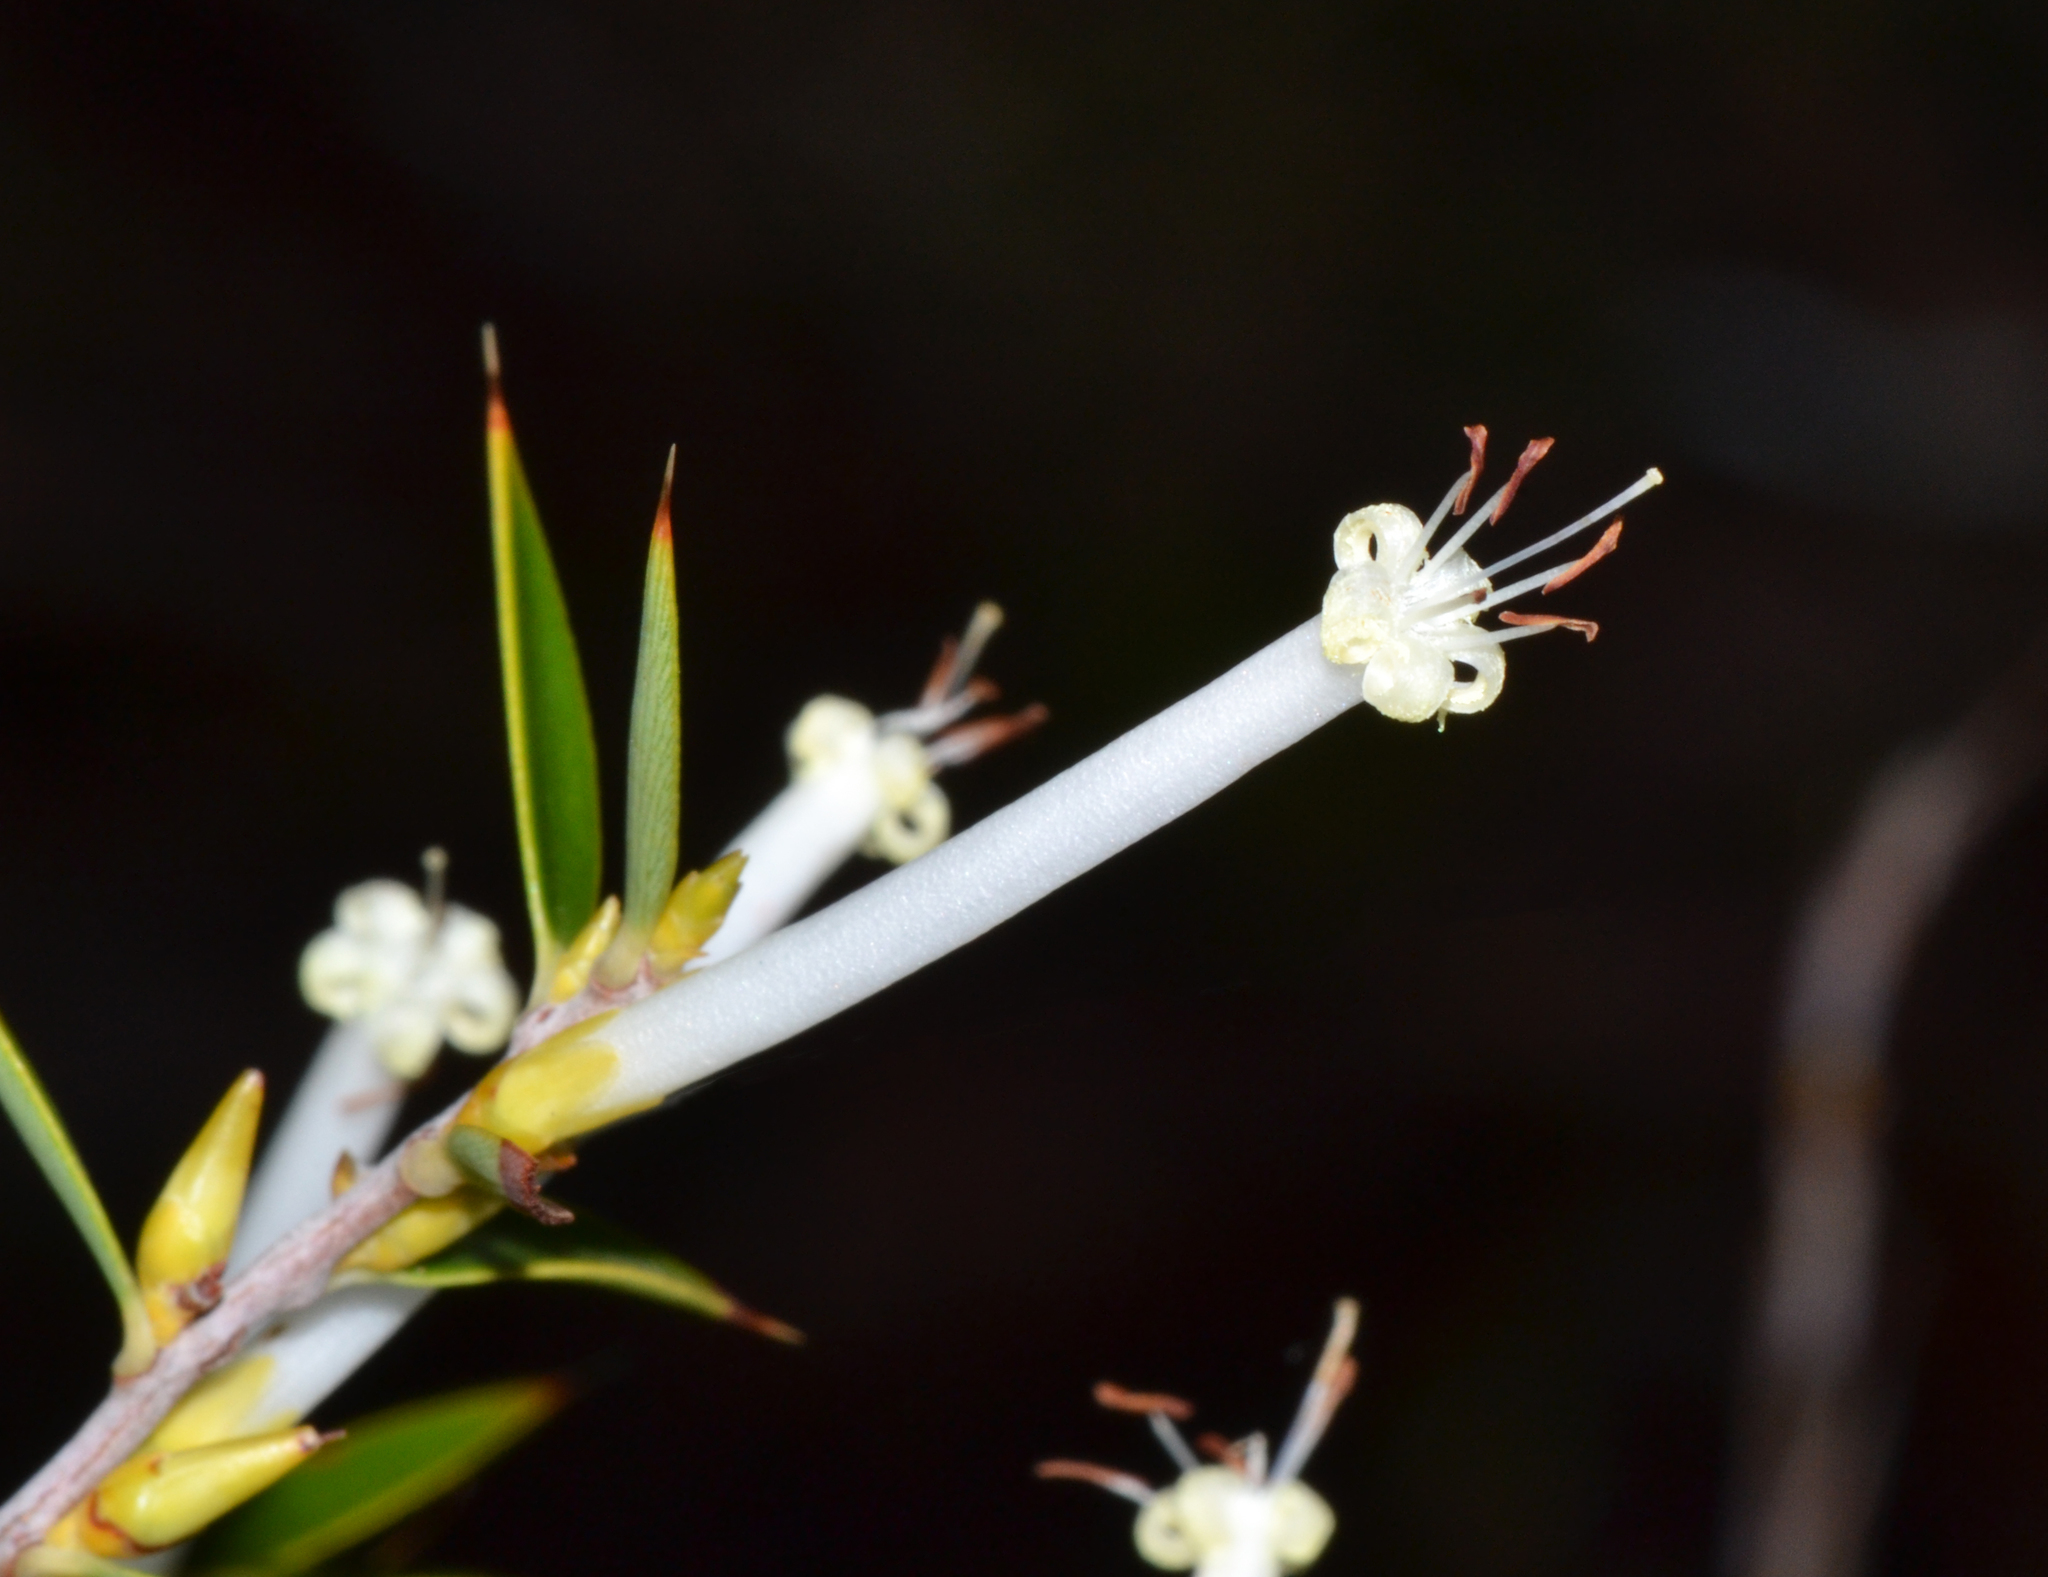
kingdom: Plantae
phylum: Tracheophyta
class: Magnoliopsida
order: Ericales
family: Ericaceae
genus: Styphelia
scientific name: Styphelia tenuiflora
